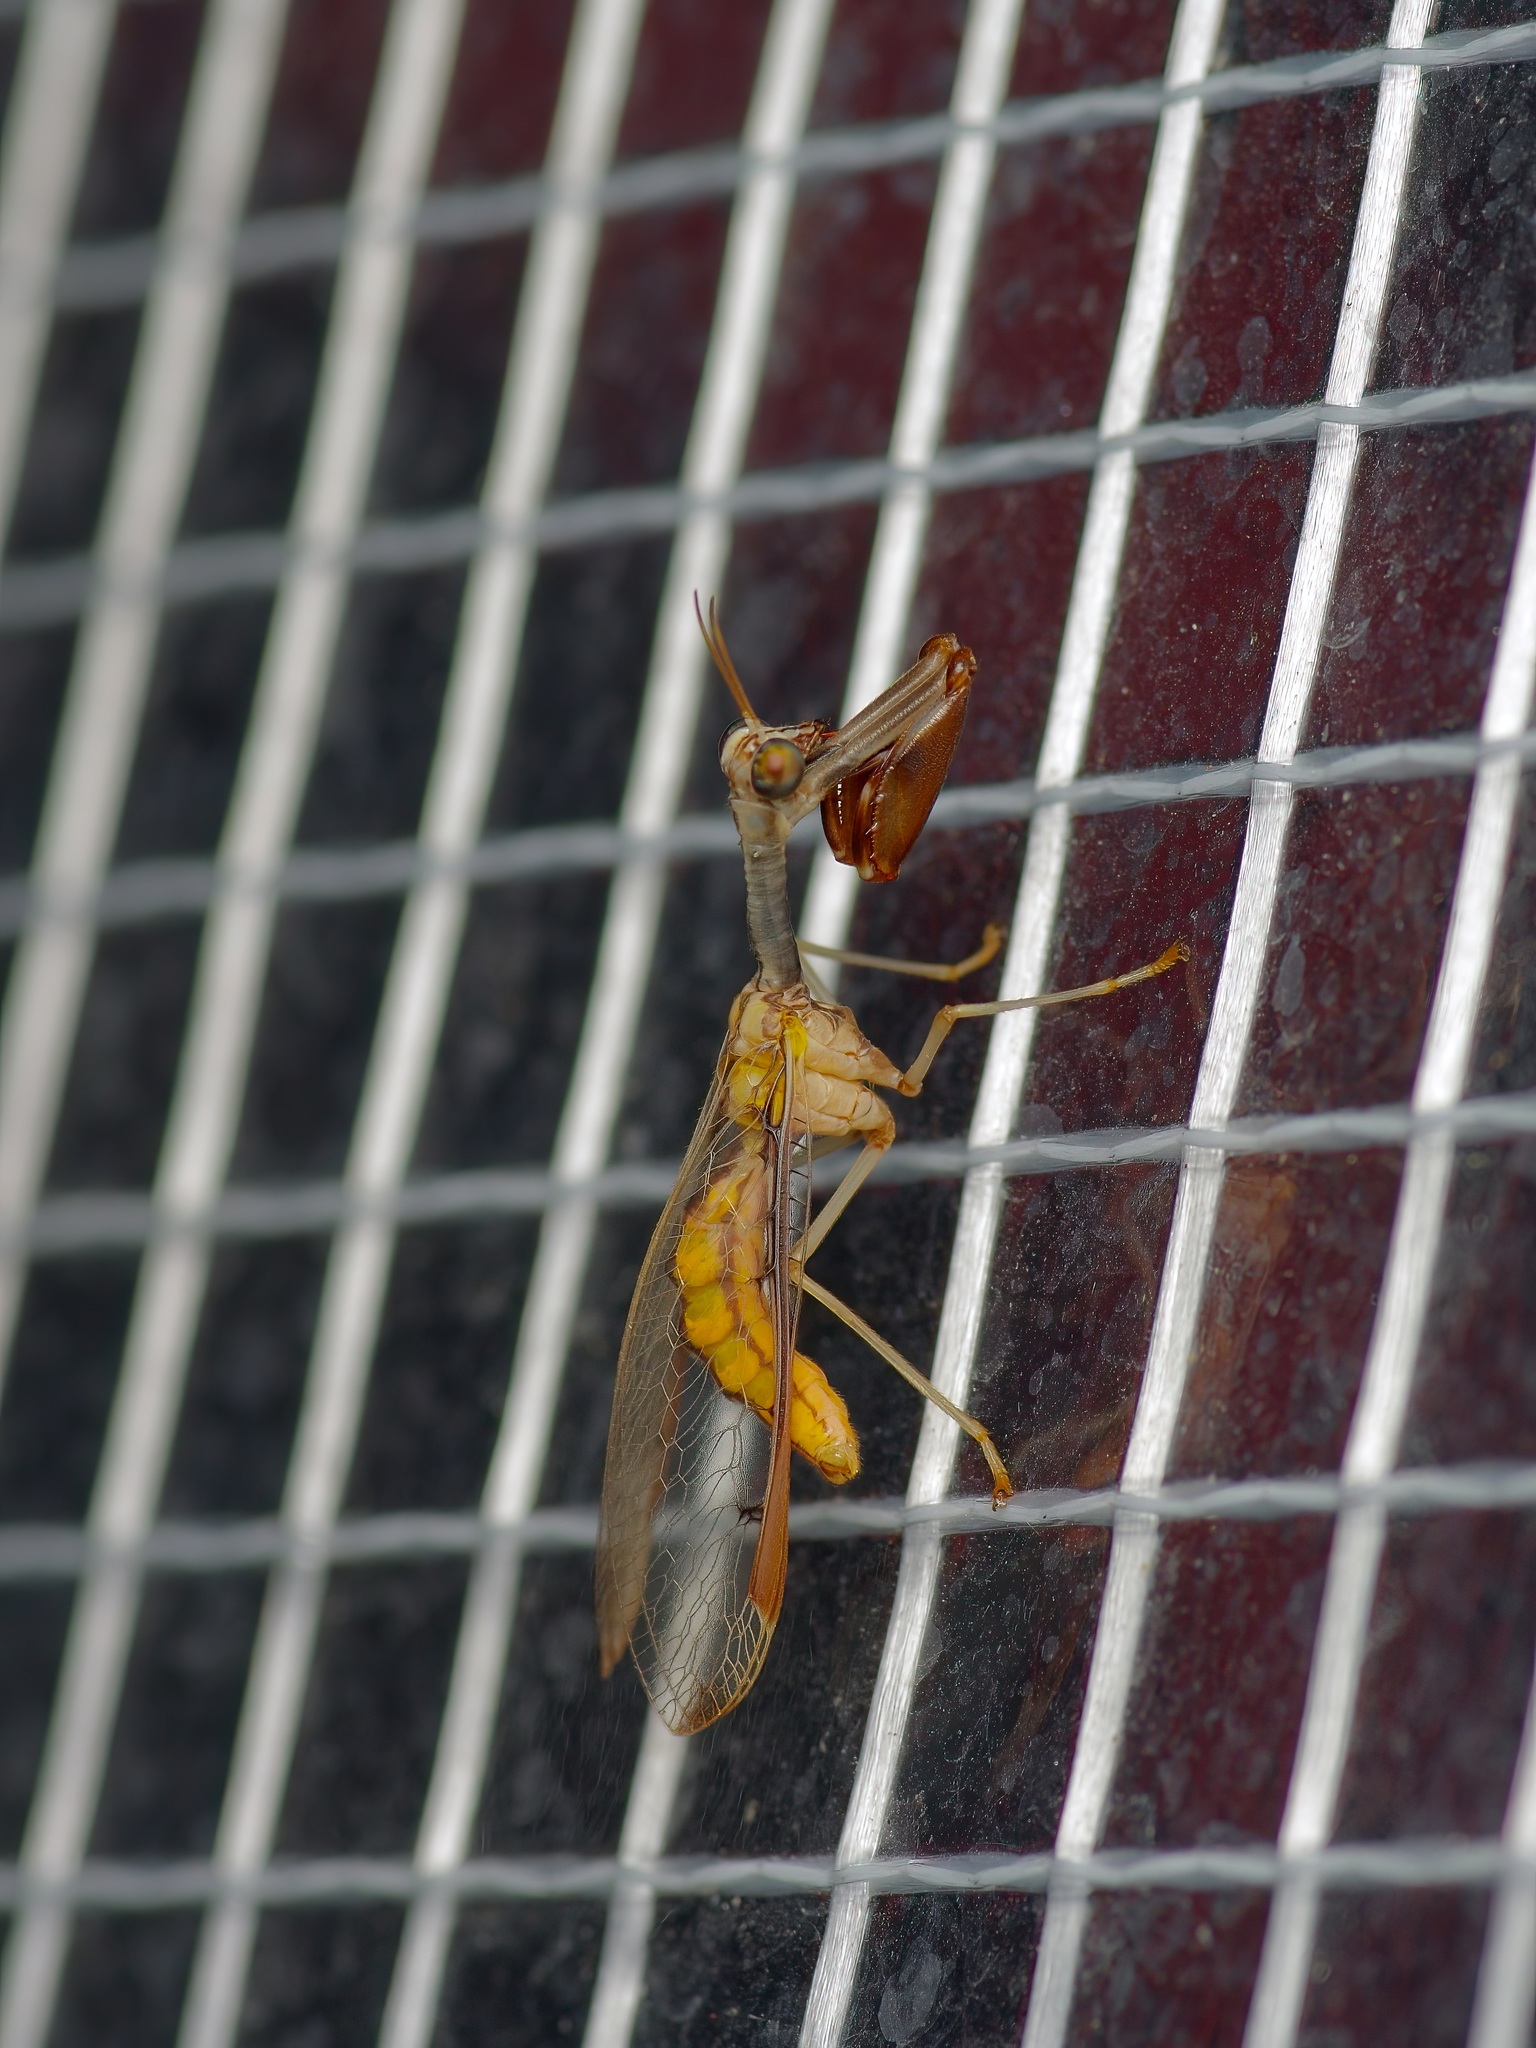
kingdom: Animalia
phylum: Arthropoda
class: Insecta
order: Neuroptera
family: Mantispidae
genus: Dicromantispa
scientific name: Dicromantispa interrupta
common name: Four-spotted mantidfly
